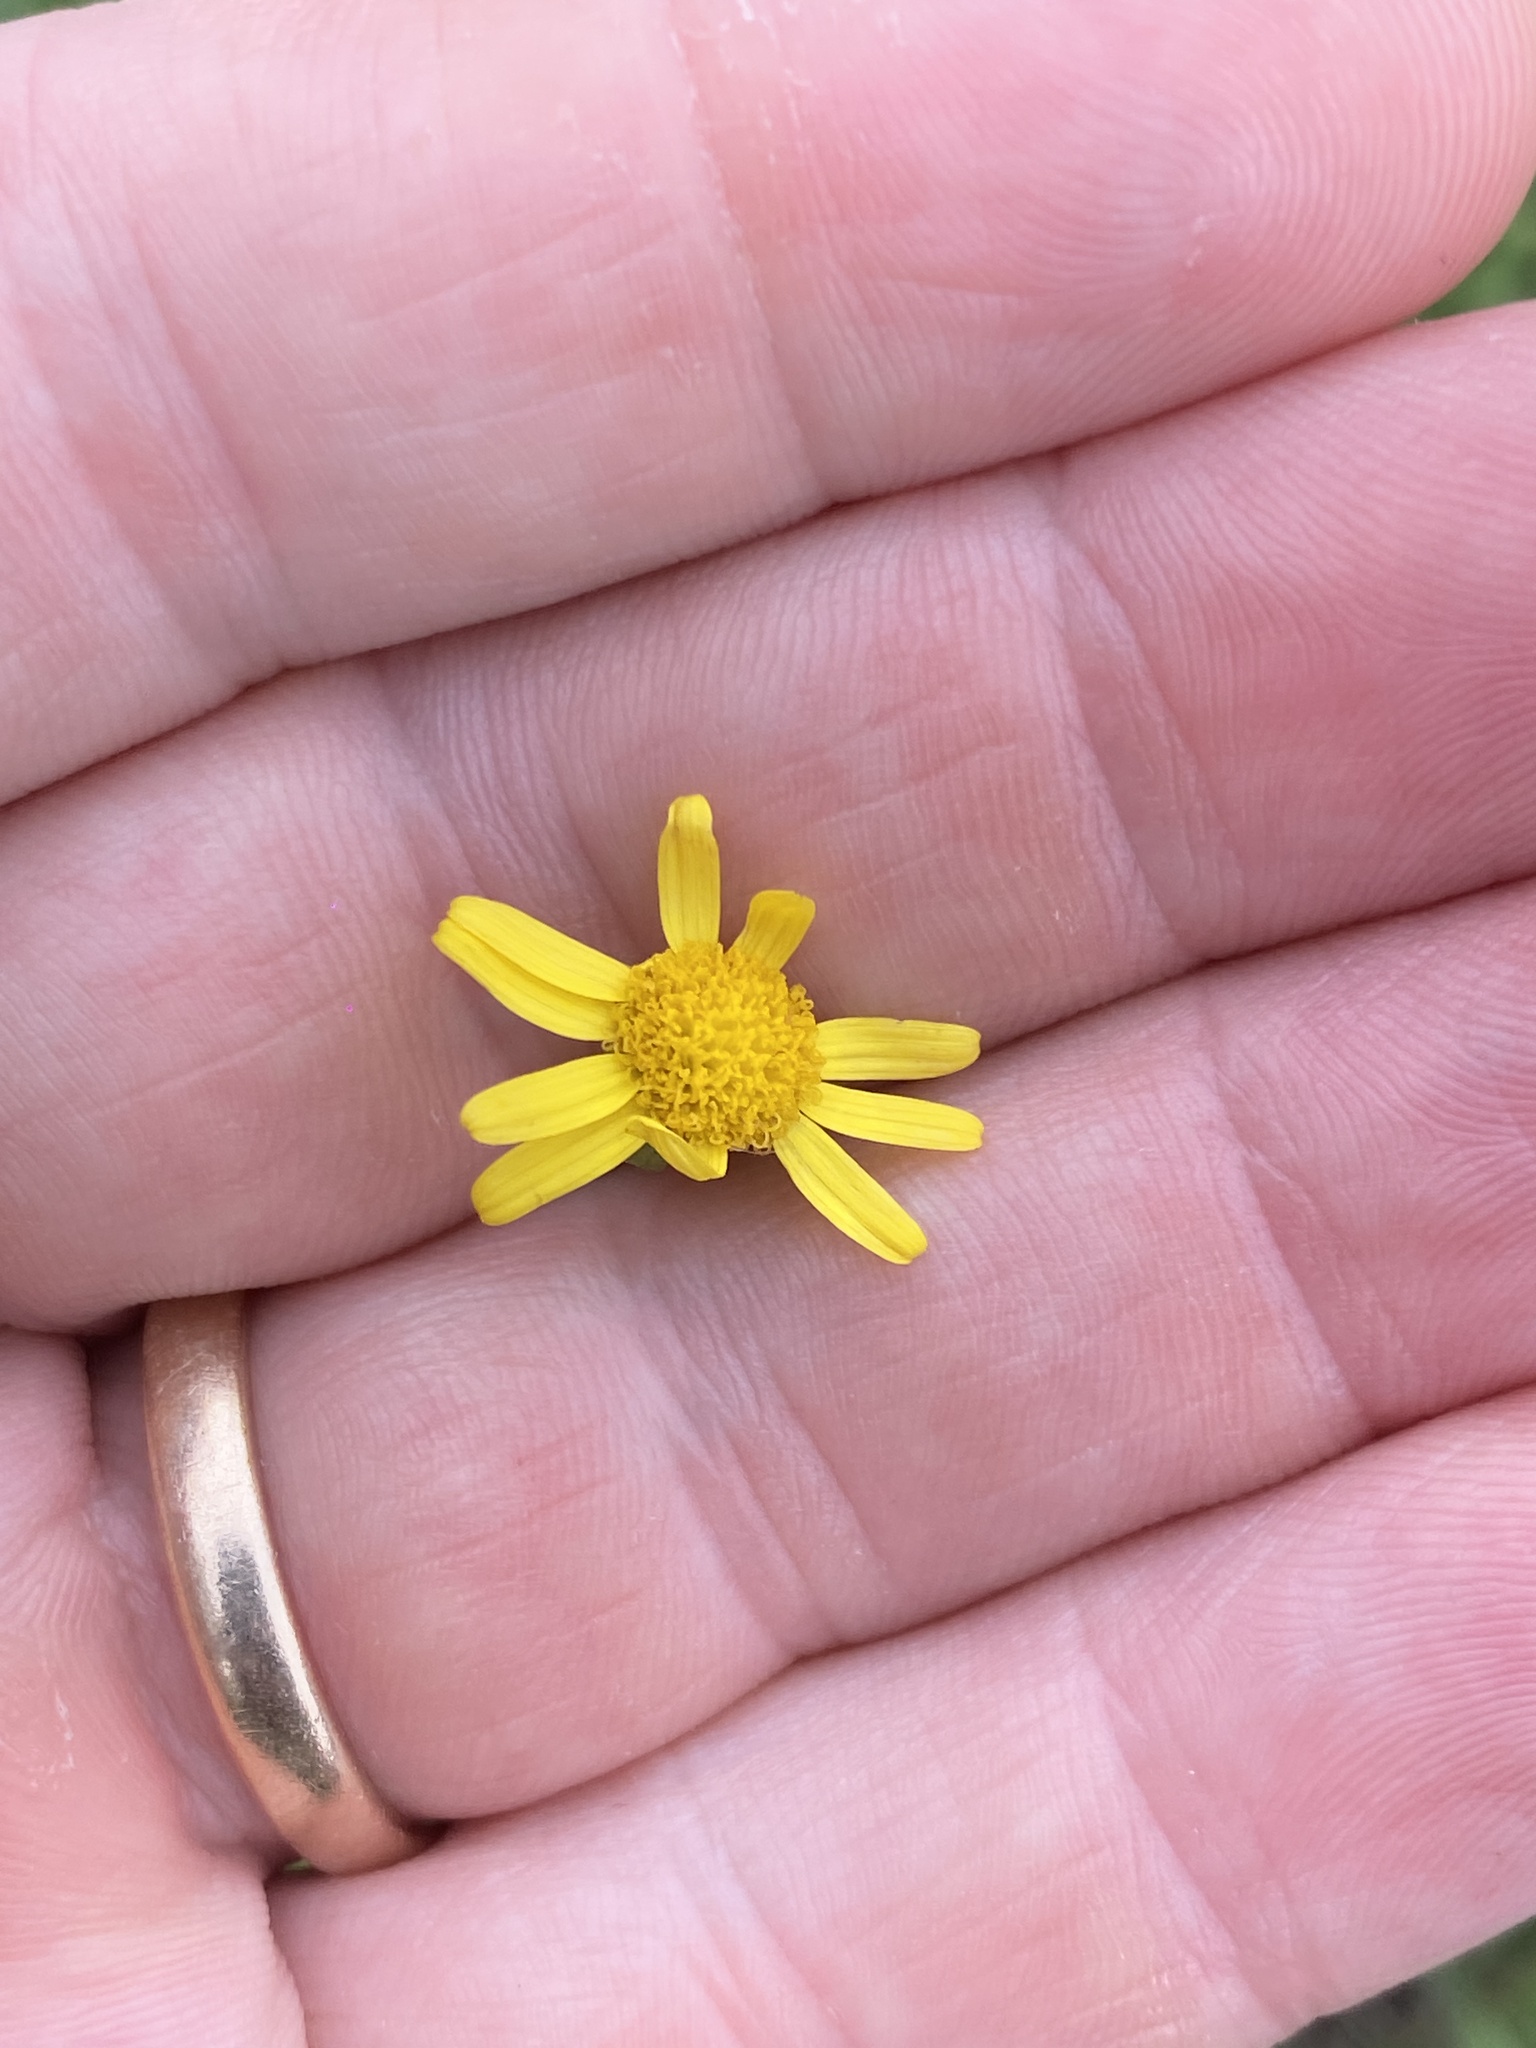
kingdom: Plantae
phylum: Tracheophyta
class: Magnoliopsida
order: Asterales
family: Asteraceae
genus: Senecio
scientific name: Senecio madagascariensis
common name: Madagascar ragwort
